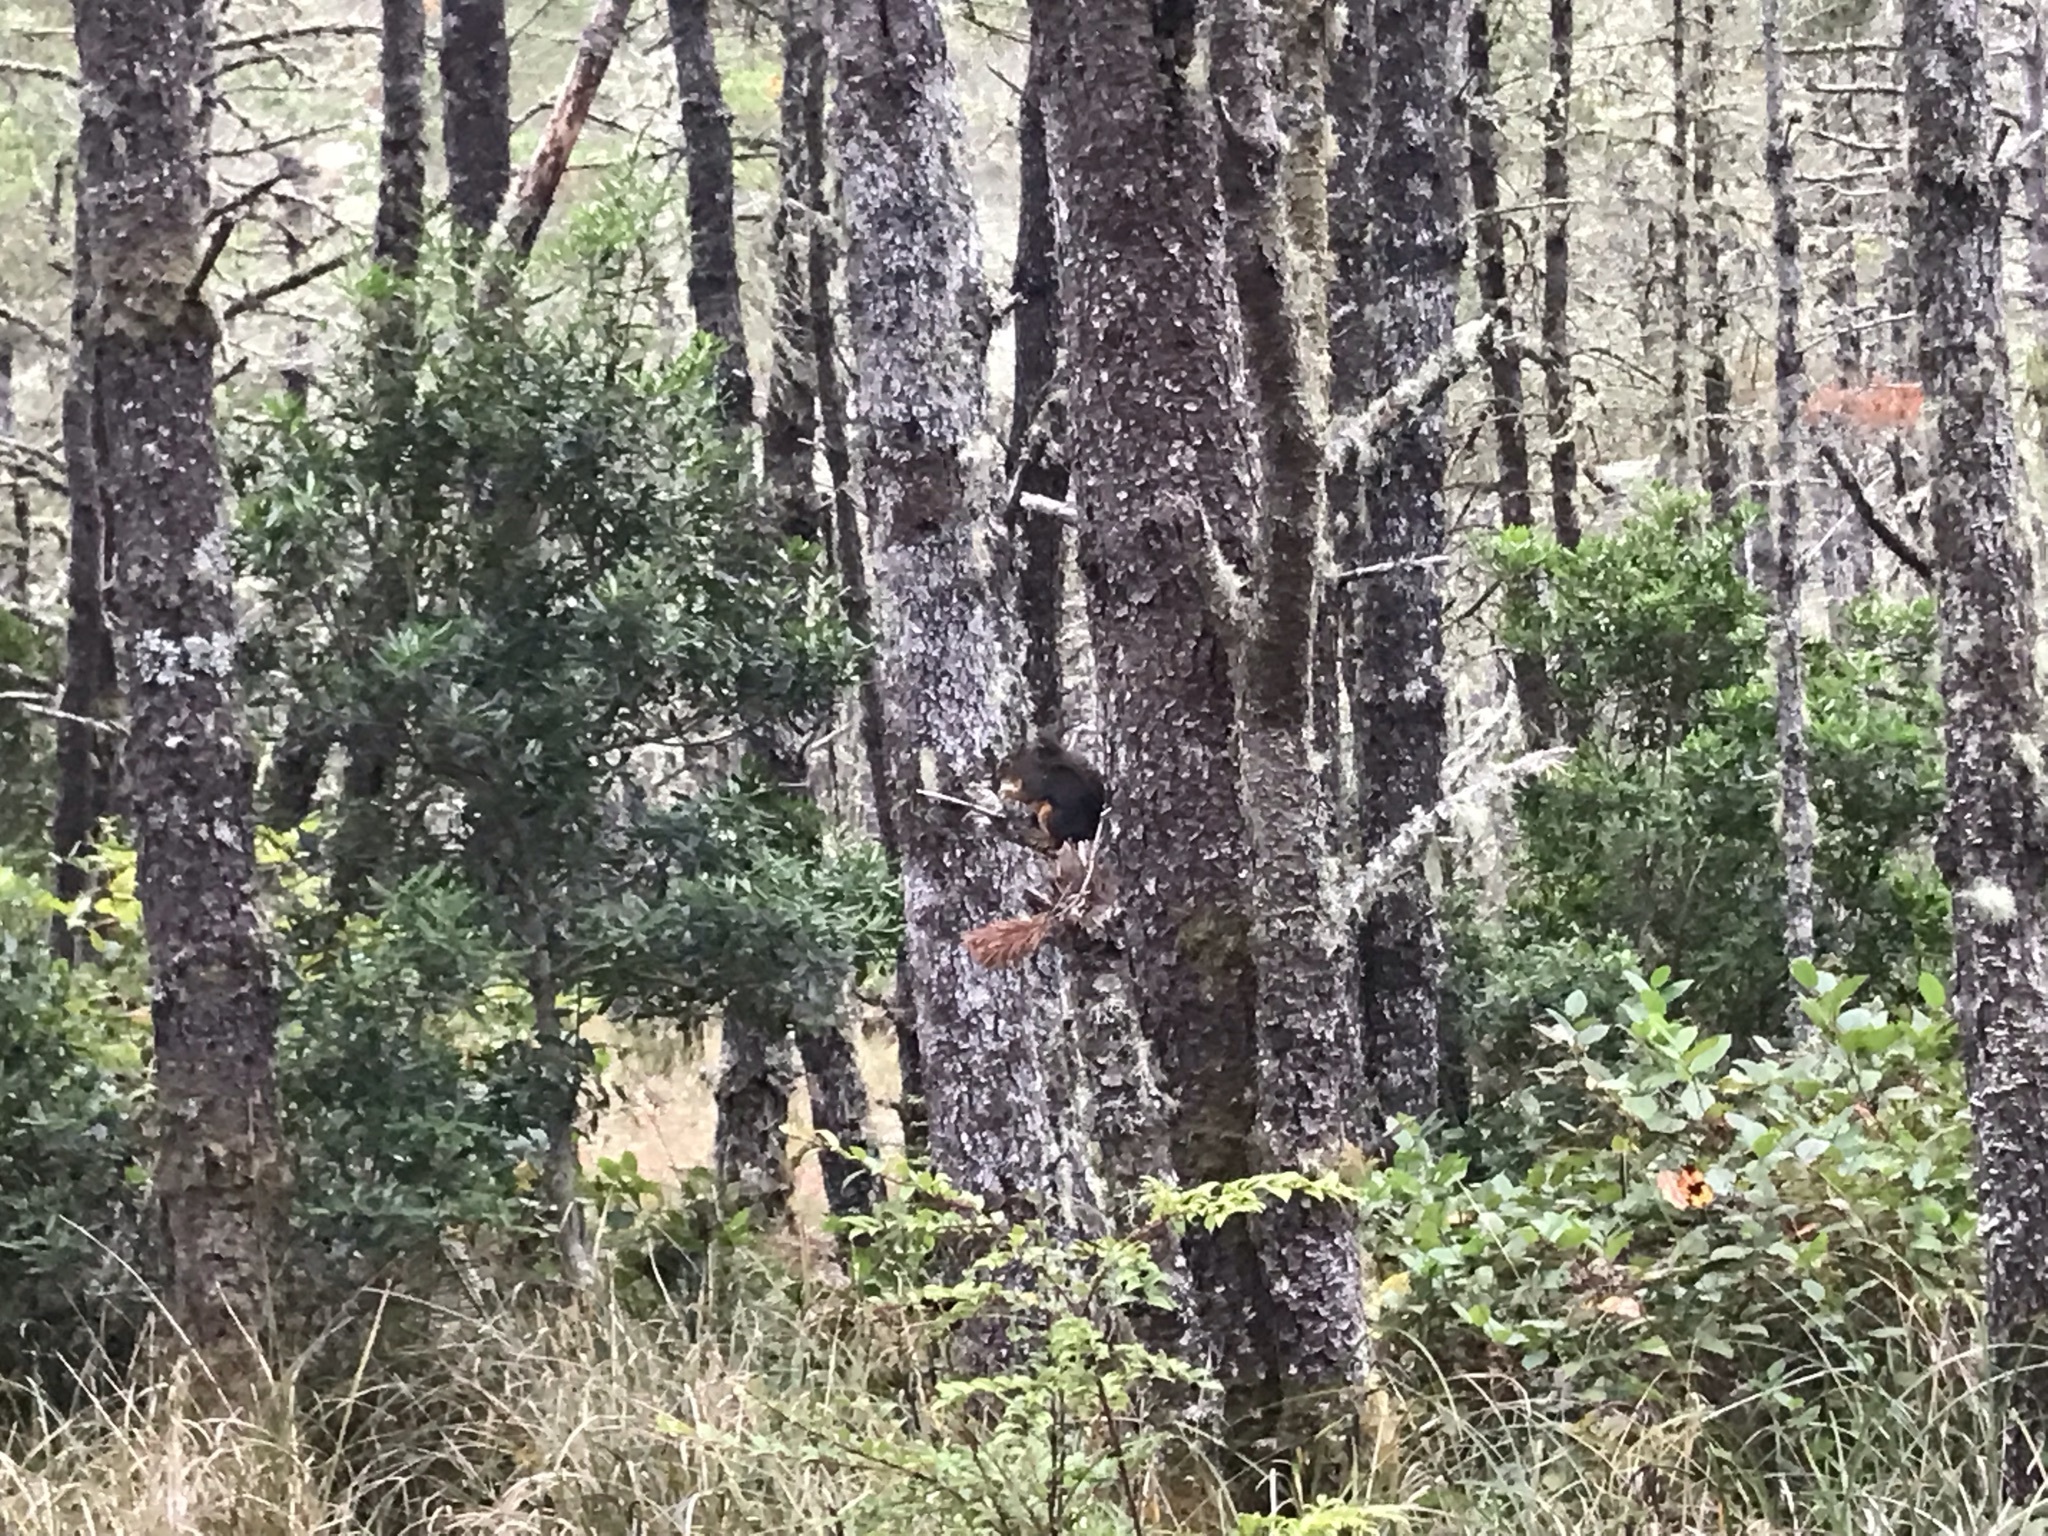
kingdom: Animalia
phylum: Chordata
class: Mammalia
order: Rodentia
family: Sciuridae
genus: Tamiasciurus
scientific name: Tamiasciurus douglasii
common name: Douglas's squirrel
